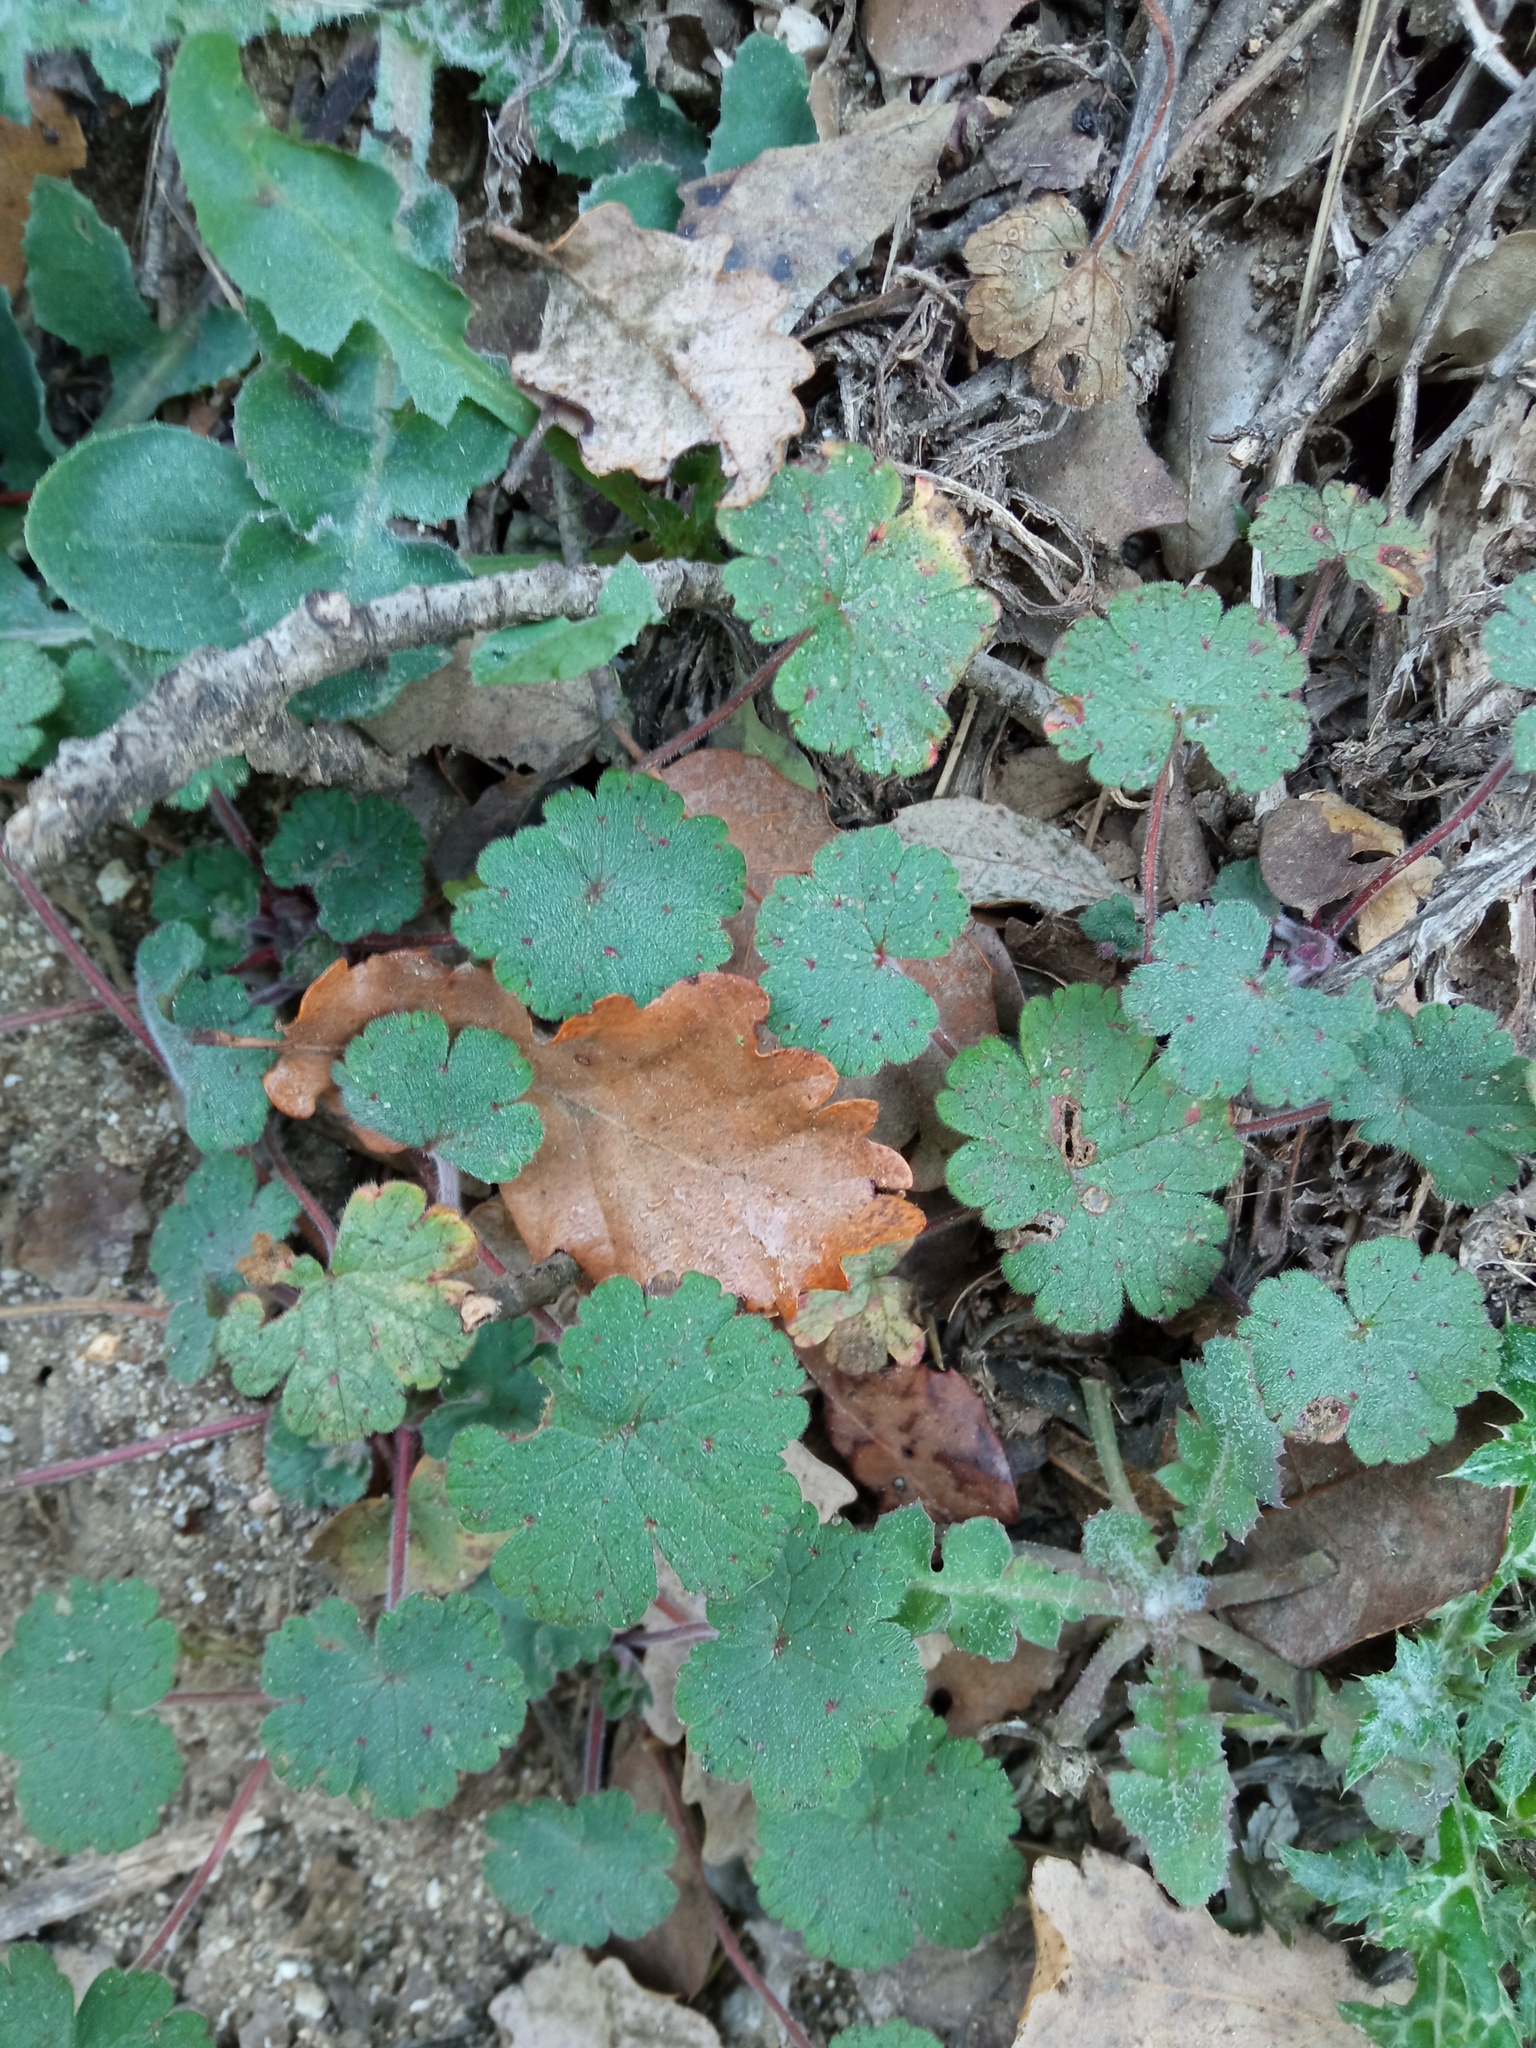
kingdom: Plantae
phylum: Tracheophyta
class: Magnoliopsida
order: Geraniales
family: Geraniaceae
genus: Geranium
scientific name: Geranium rotundifolium
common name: Round-leaved crane's-bill
